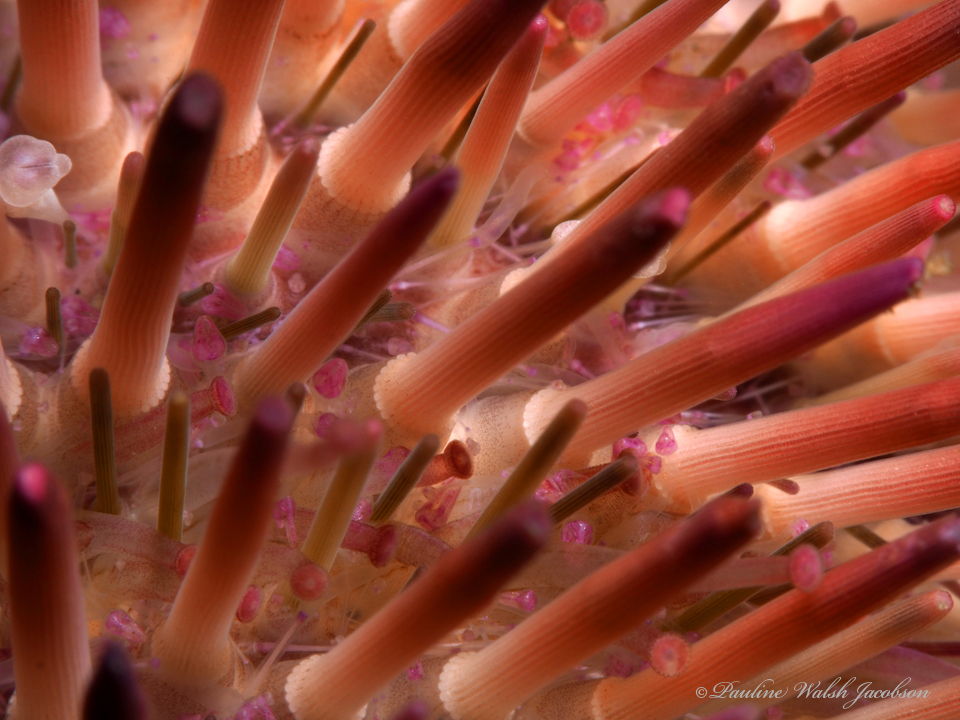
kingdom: Animalia
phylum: Echinodermata
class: Echinoidea
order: Camarodonta
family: Toxopneustidae
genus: Lytechinus
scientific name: Lytechinus variegatus
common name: Variegated urchin
